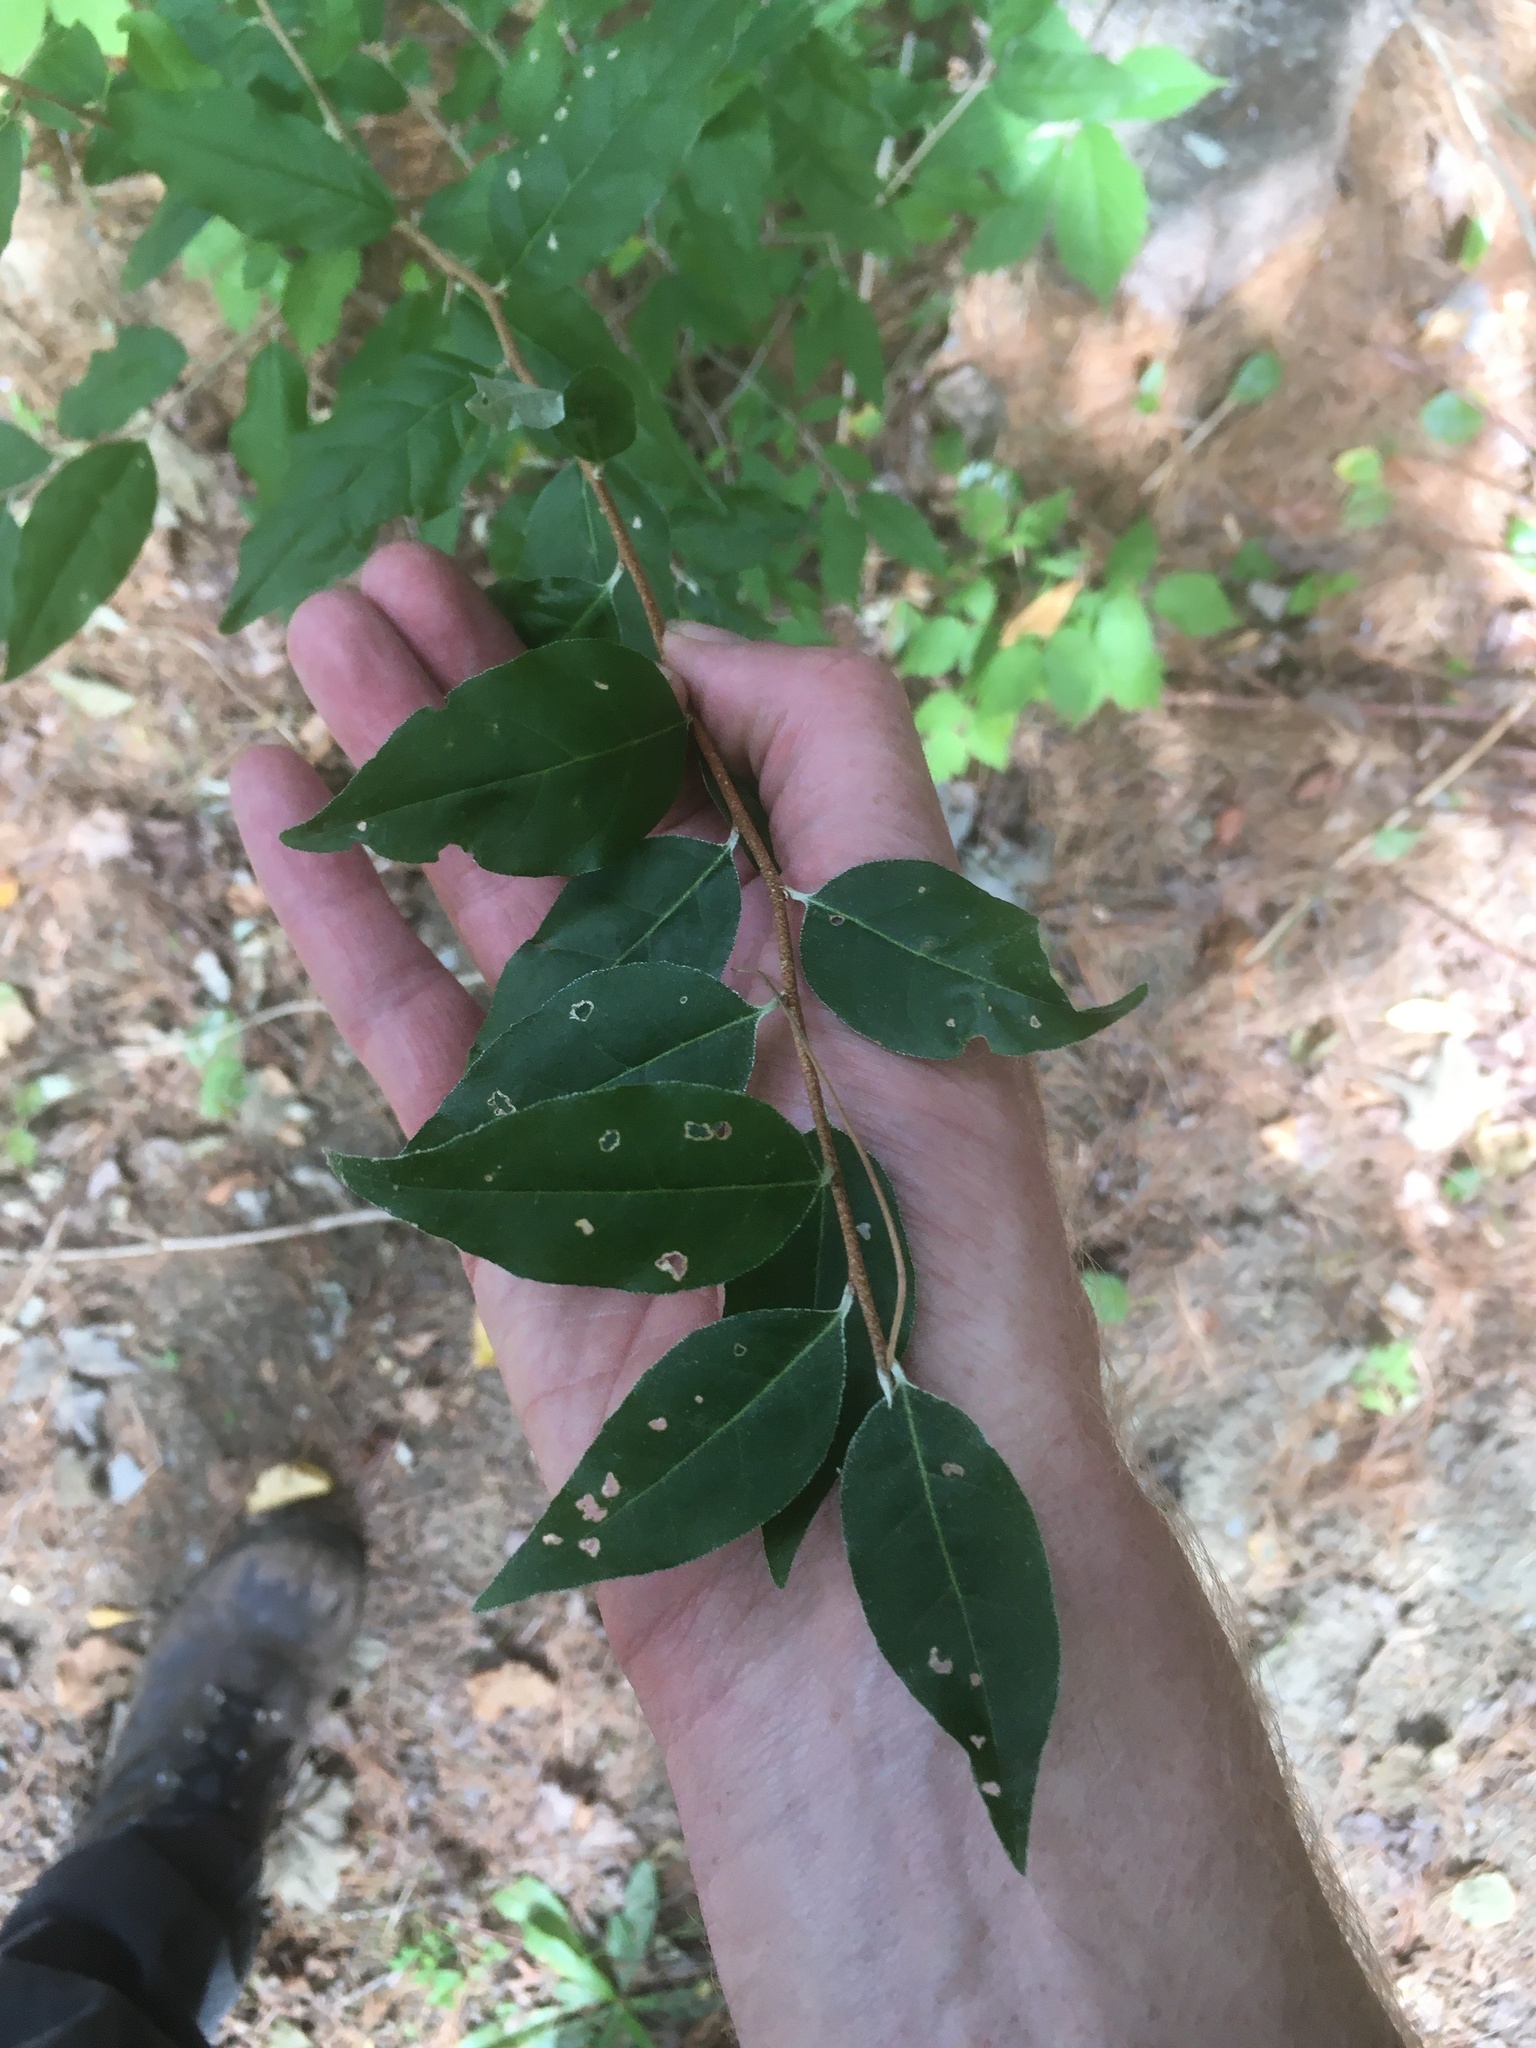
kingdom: Plantae
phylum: Tracheophyta
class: Magnoliopsida
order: Rosales
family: Elaeagnaceae
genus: Elaeagnus
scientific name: Elaeagnus umbellata
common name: Autumn olive
